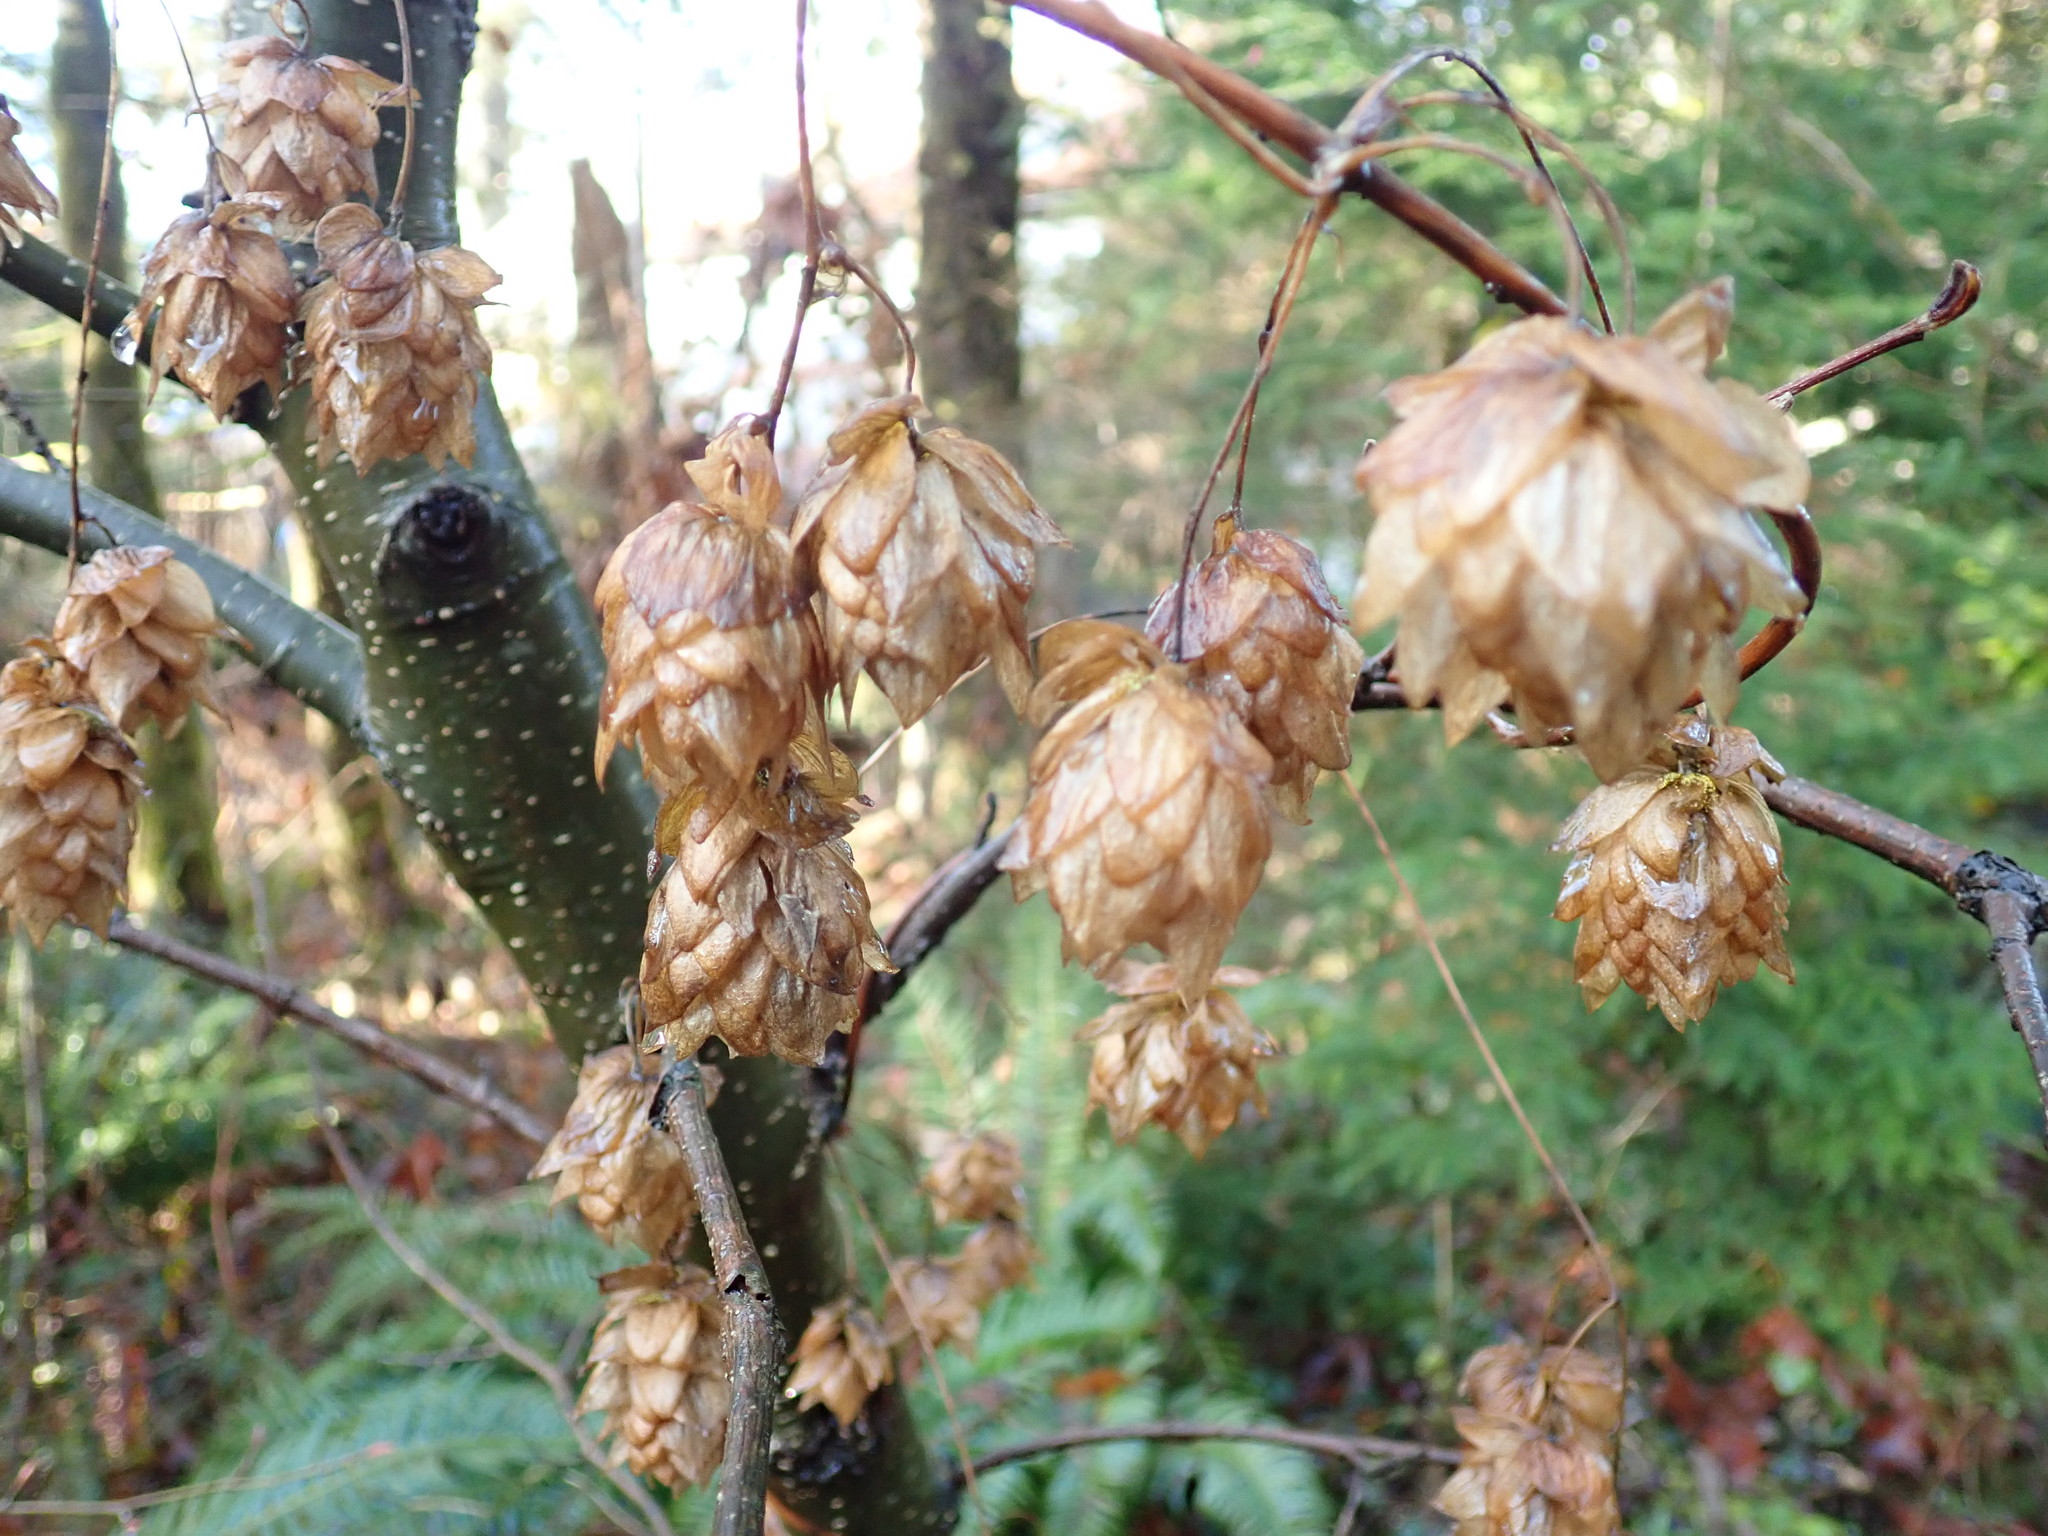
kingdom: Plantae
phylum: Tracheophyta
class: Magnoliopsida
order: Rosales
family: Cannabaceae
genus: Humulus
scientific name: Humulus lupulus
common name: Hop
